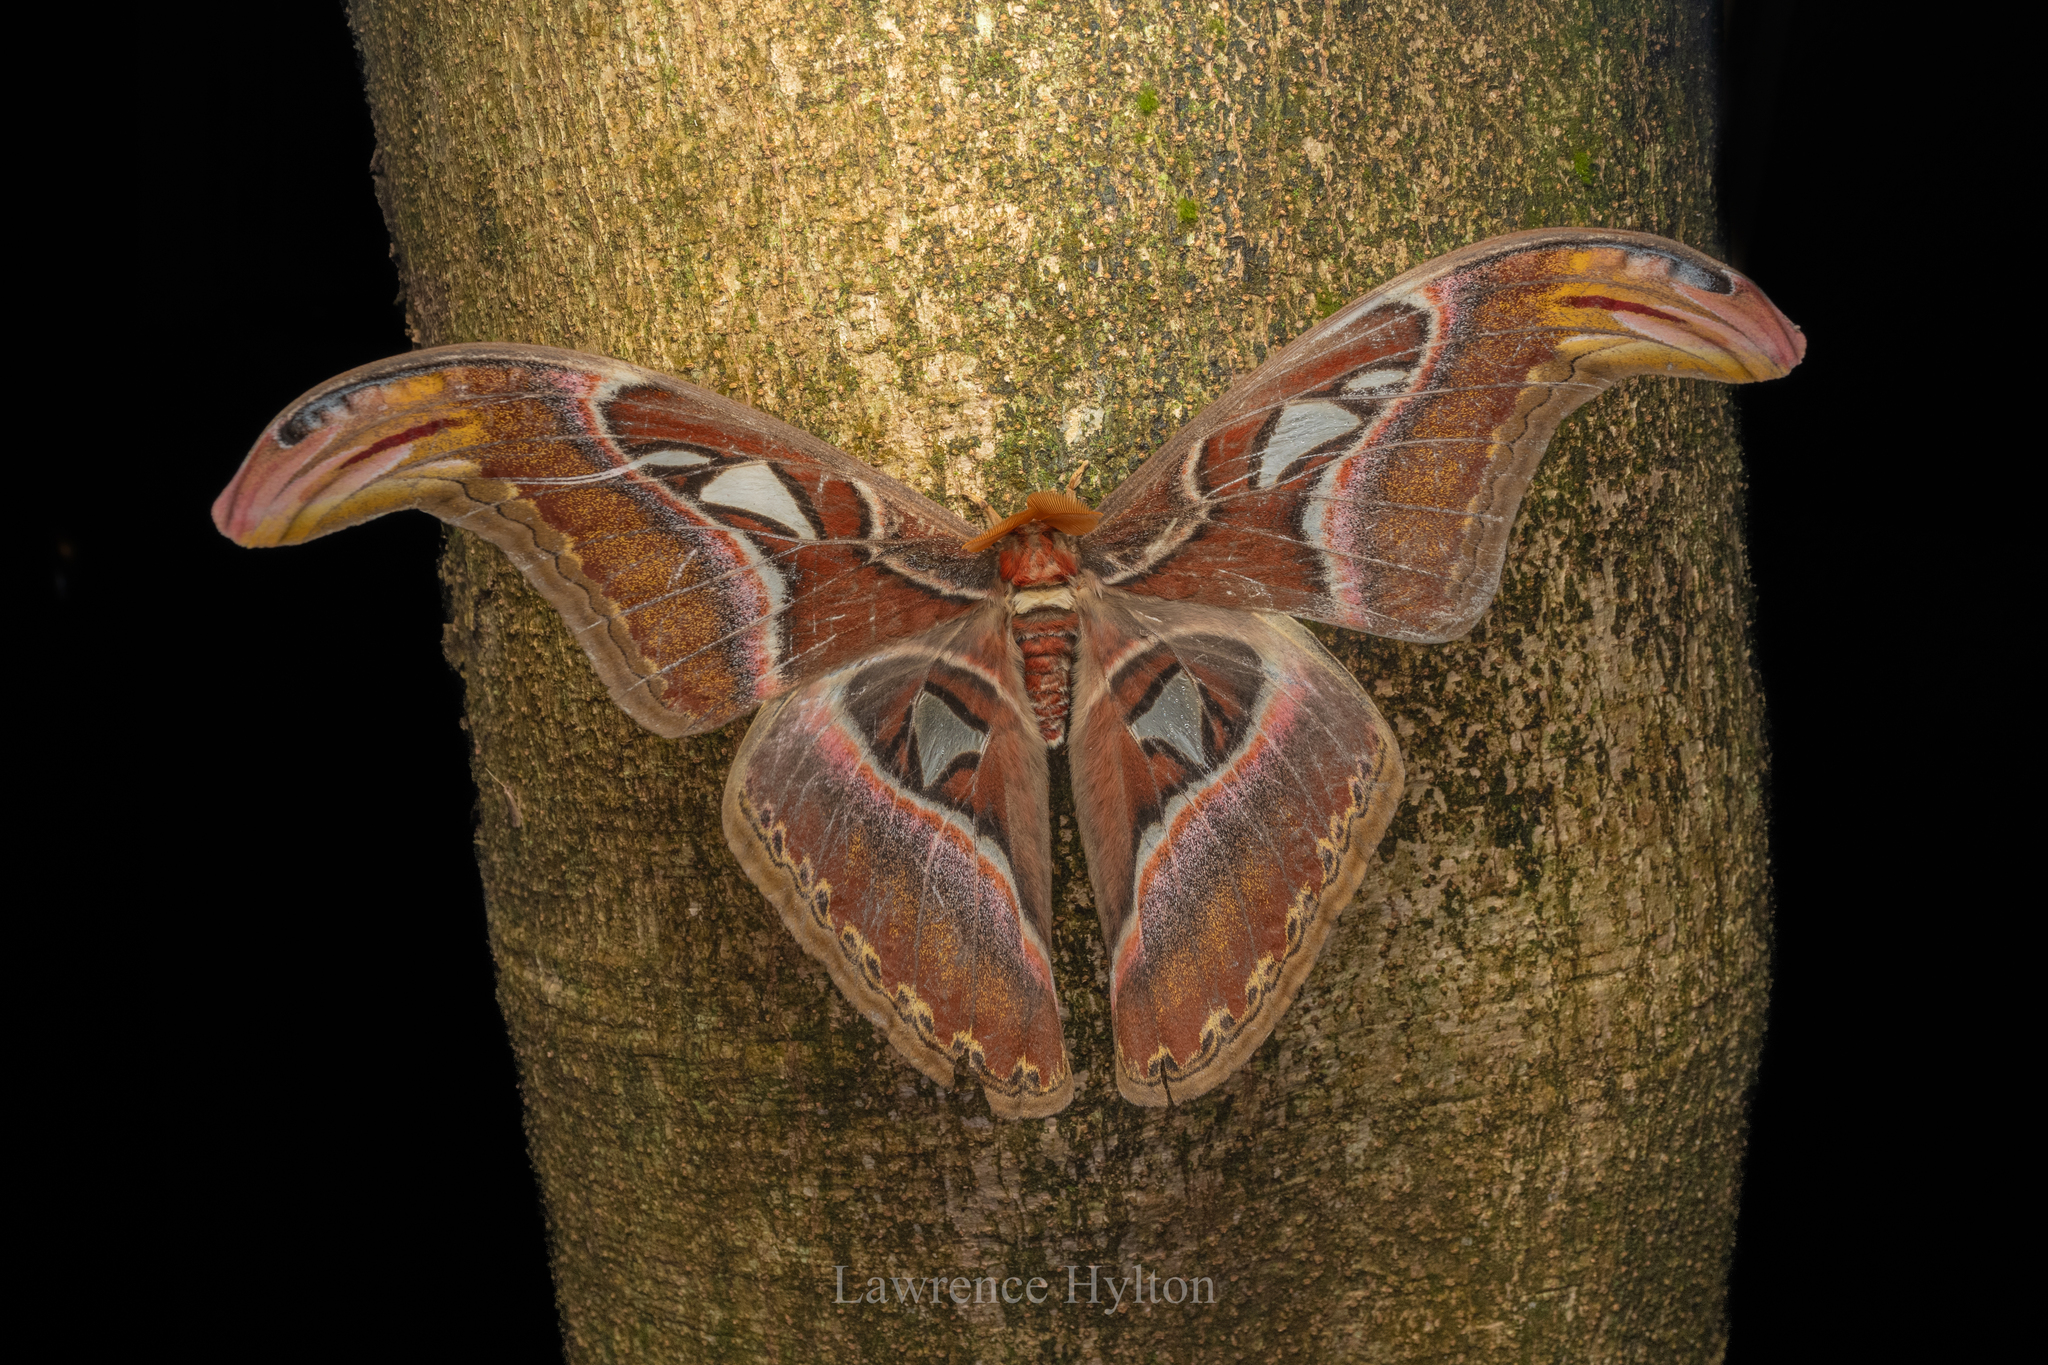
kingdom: Animalia
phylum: Arthropoda
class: Insecta
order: Lepidoptera
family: Saturniidae
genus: Attacus
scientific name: Attacus atlas
